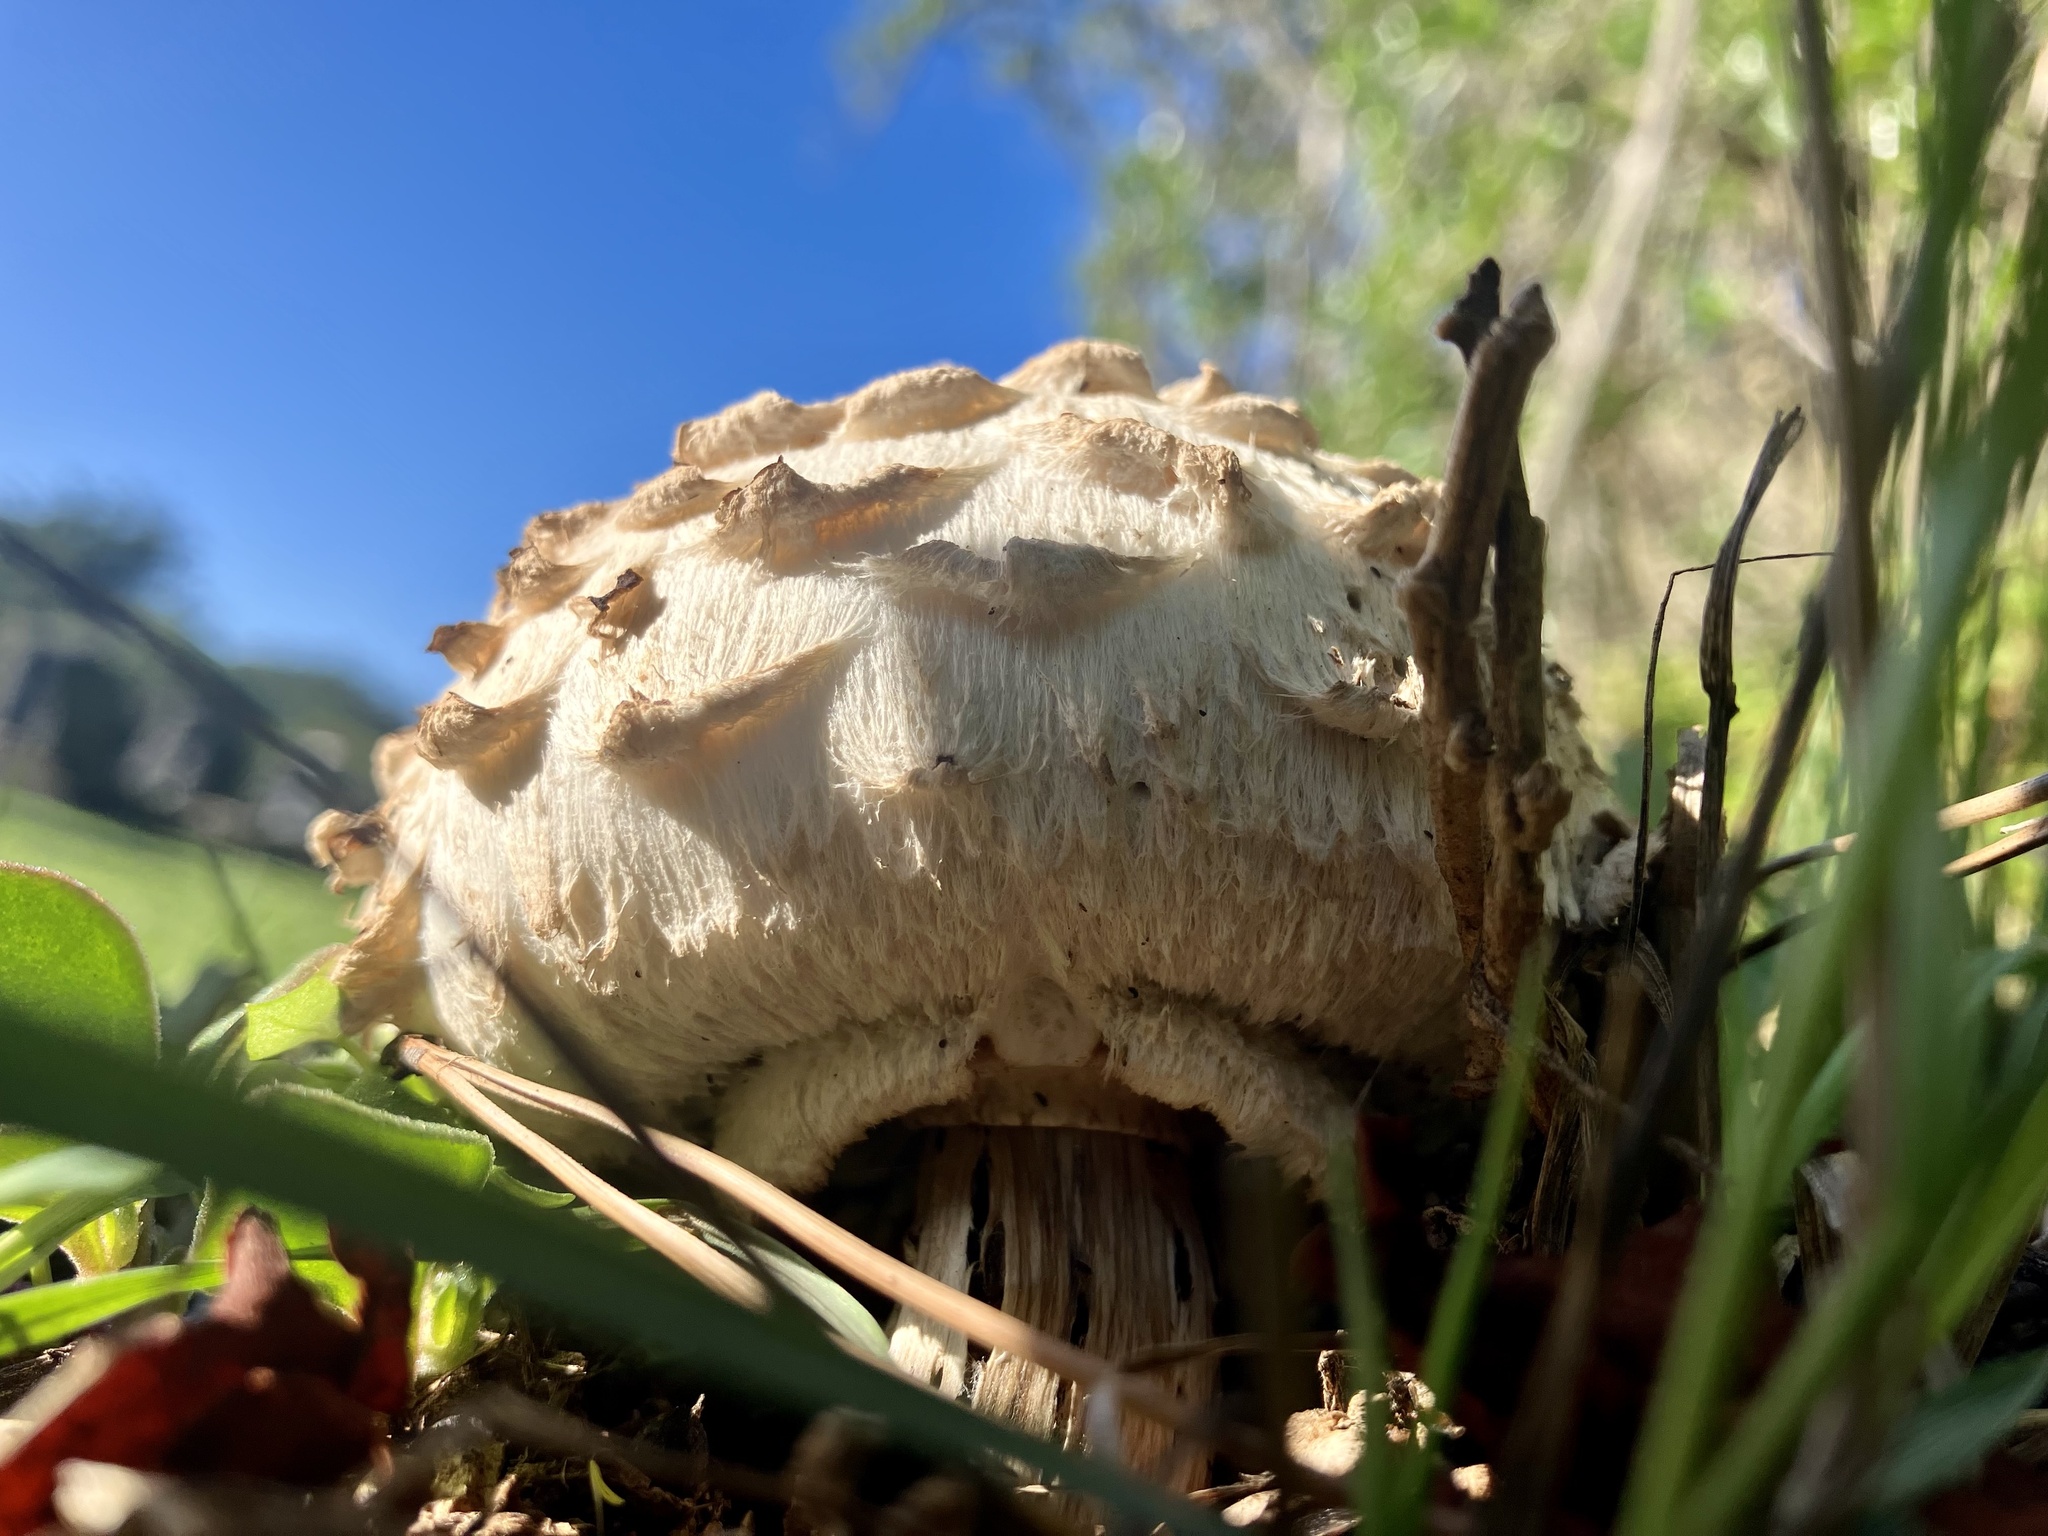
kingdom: Fungi
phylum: Basidiomycota
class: Agaricomycetes
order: Agaricales
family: Agaricaceae
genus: Chlorophyllum
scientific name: Chlorophyllum rhacodes
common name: Shaggy parasol
